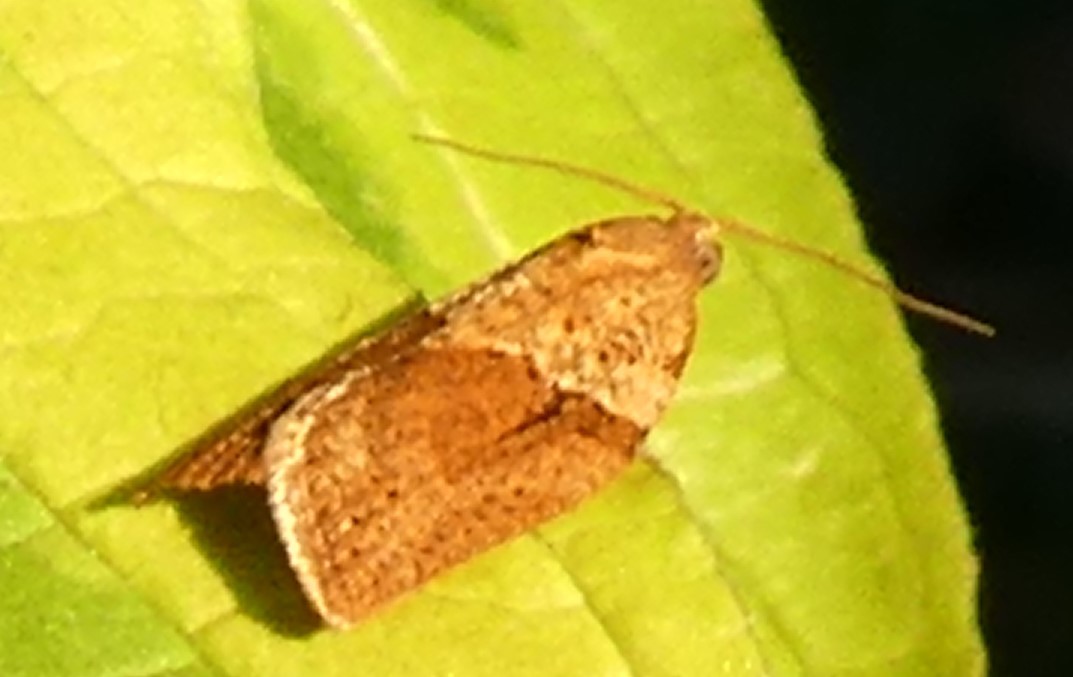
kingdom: Animalia
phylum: Arthropoda
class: Insecta
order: Lepidoptera
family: Tortricidae
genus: Epiphyas
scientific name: Epiphyas postvittana
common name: Light brown apple moth
